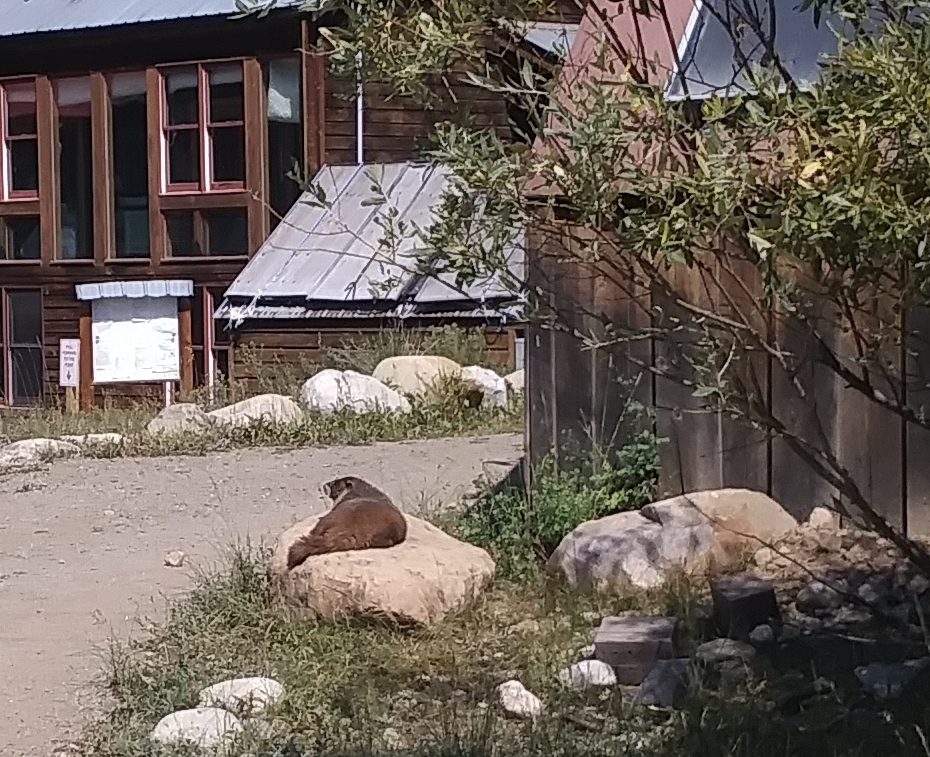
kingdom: Animalia
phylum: Chordata
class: Mammalia
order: Rodentia
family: Sciuridae
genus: Marmota
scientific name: Marmota flaviventris
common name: Yellow-bellied marmot
